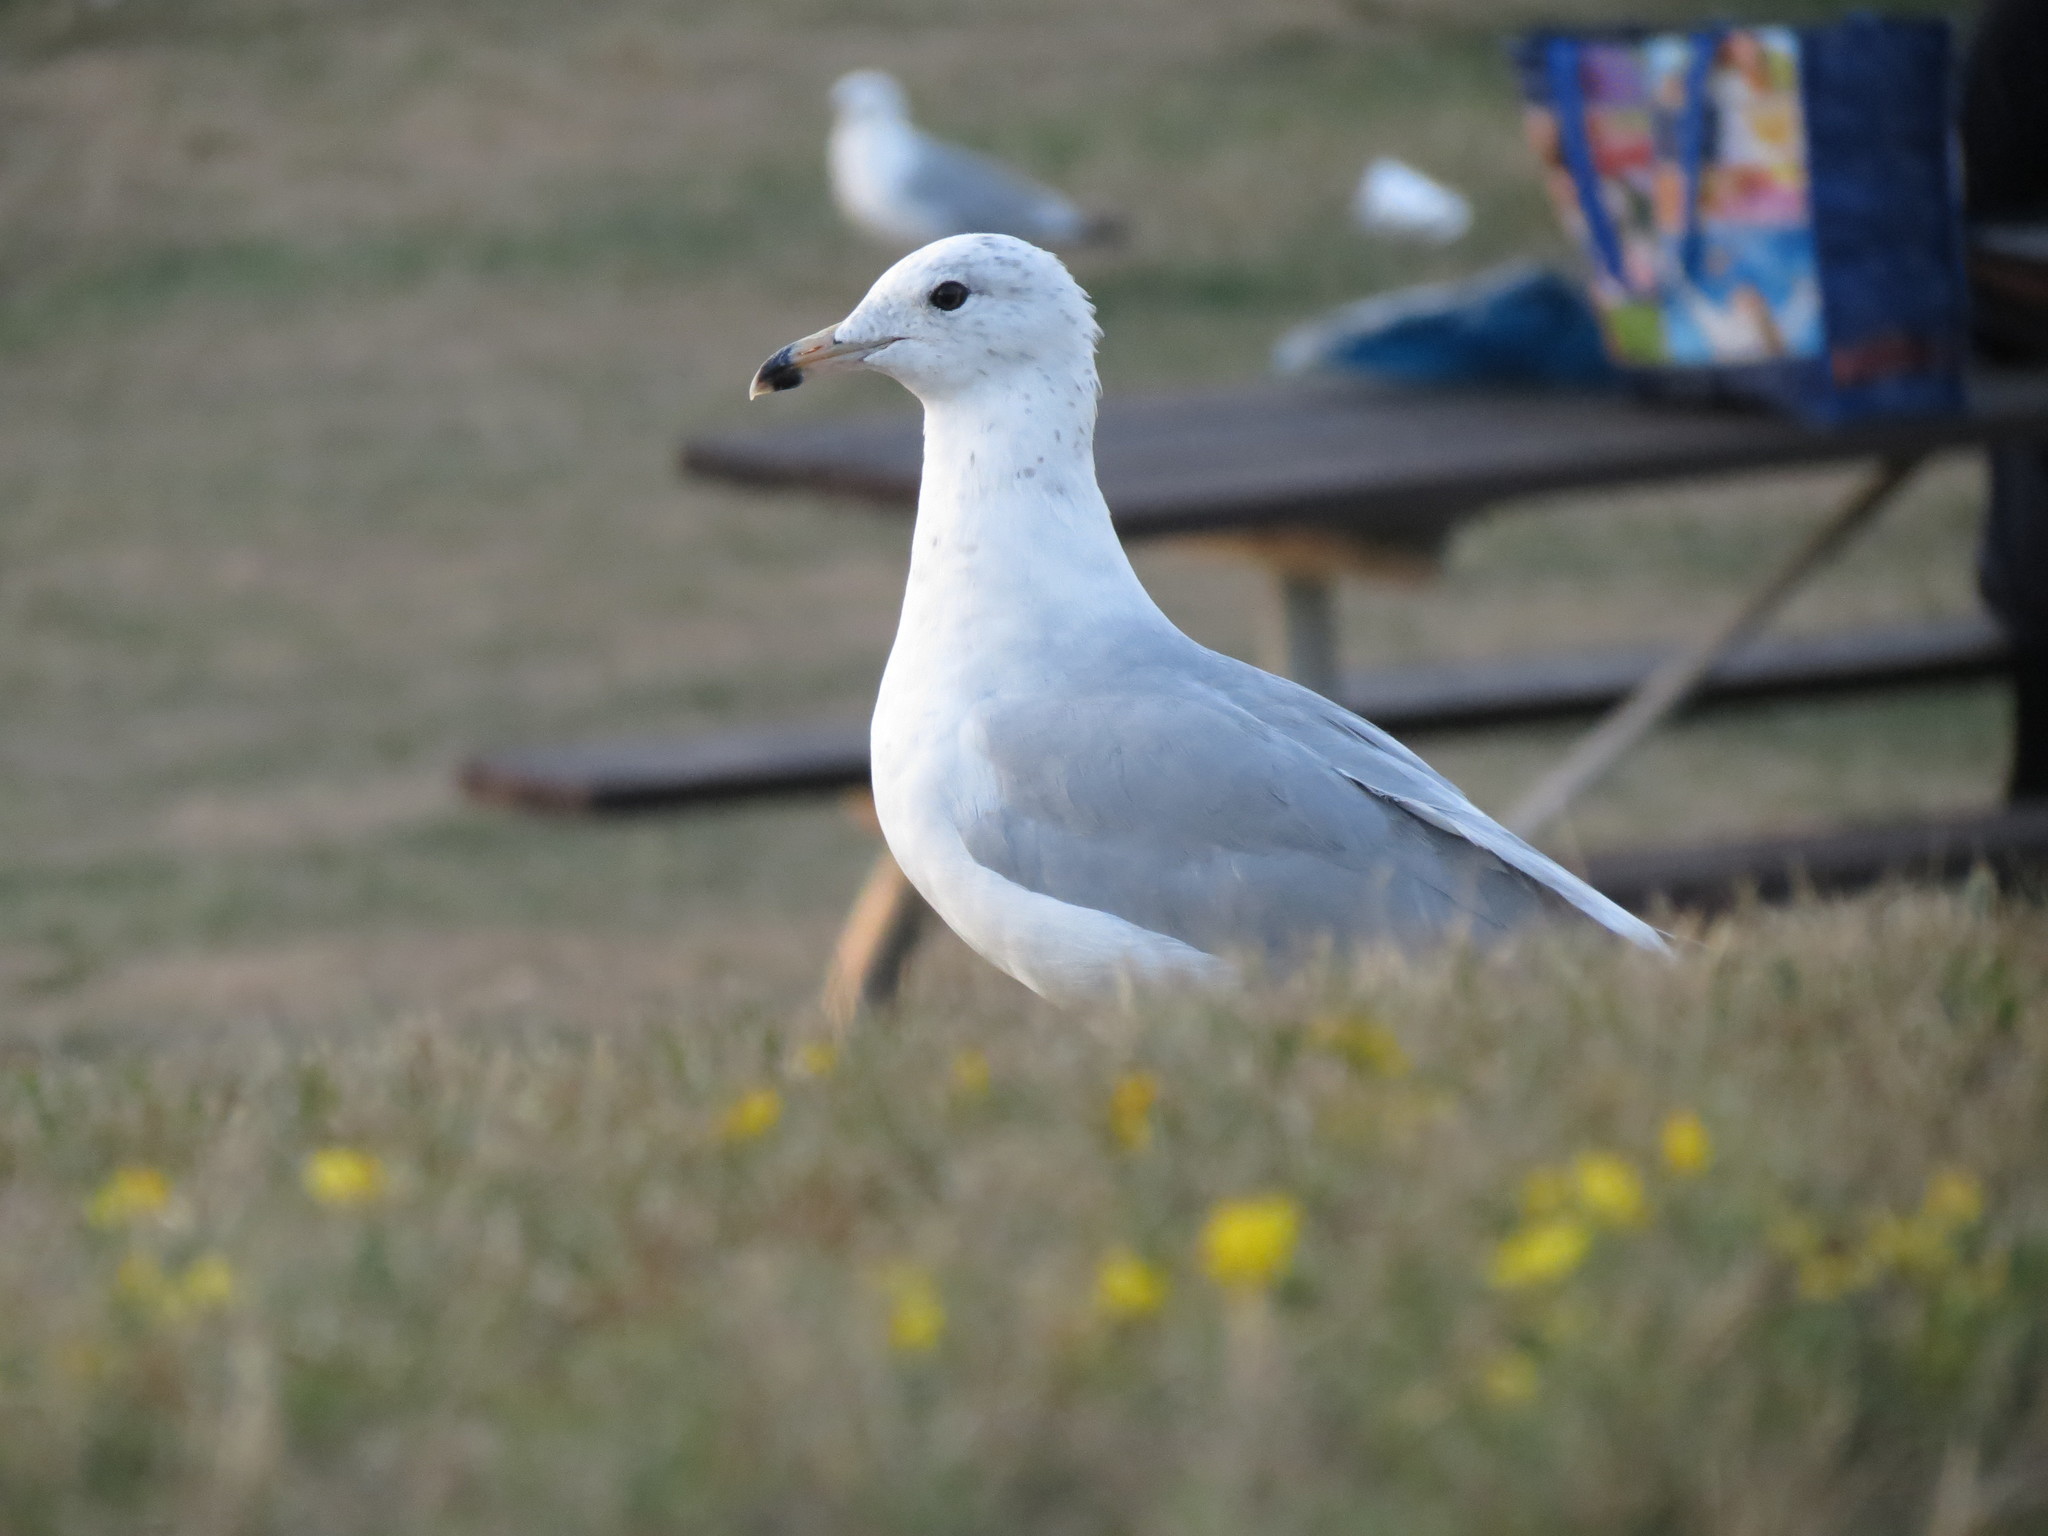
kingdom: Animalia
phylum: Chordata
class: Aves
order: Charadriiformes
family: Laridae
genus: Larus
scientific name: Larus delawarensis
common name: Ring-billed gull
